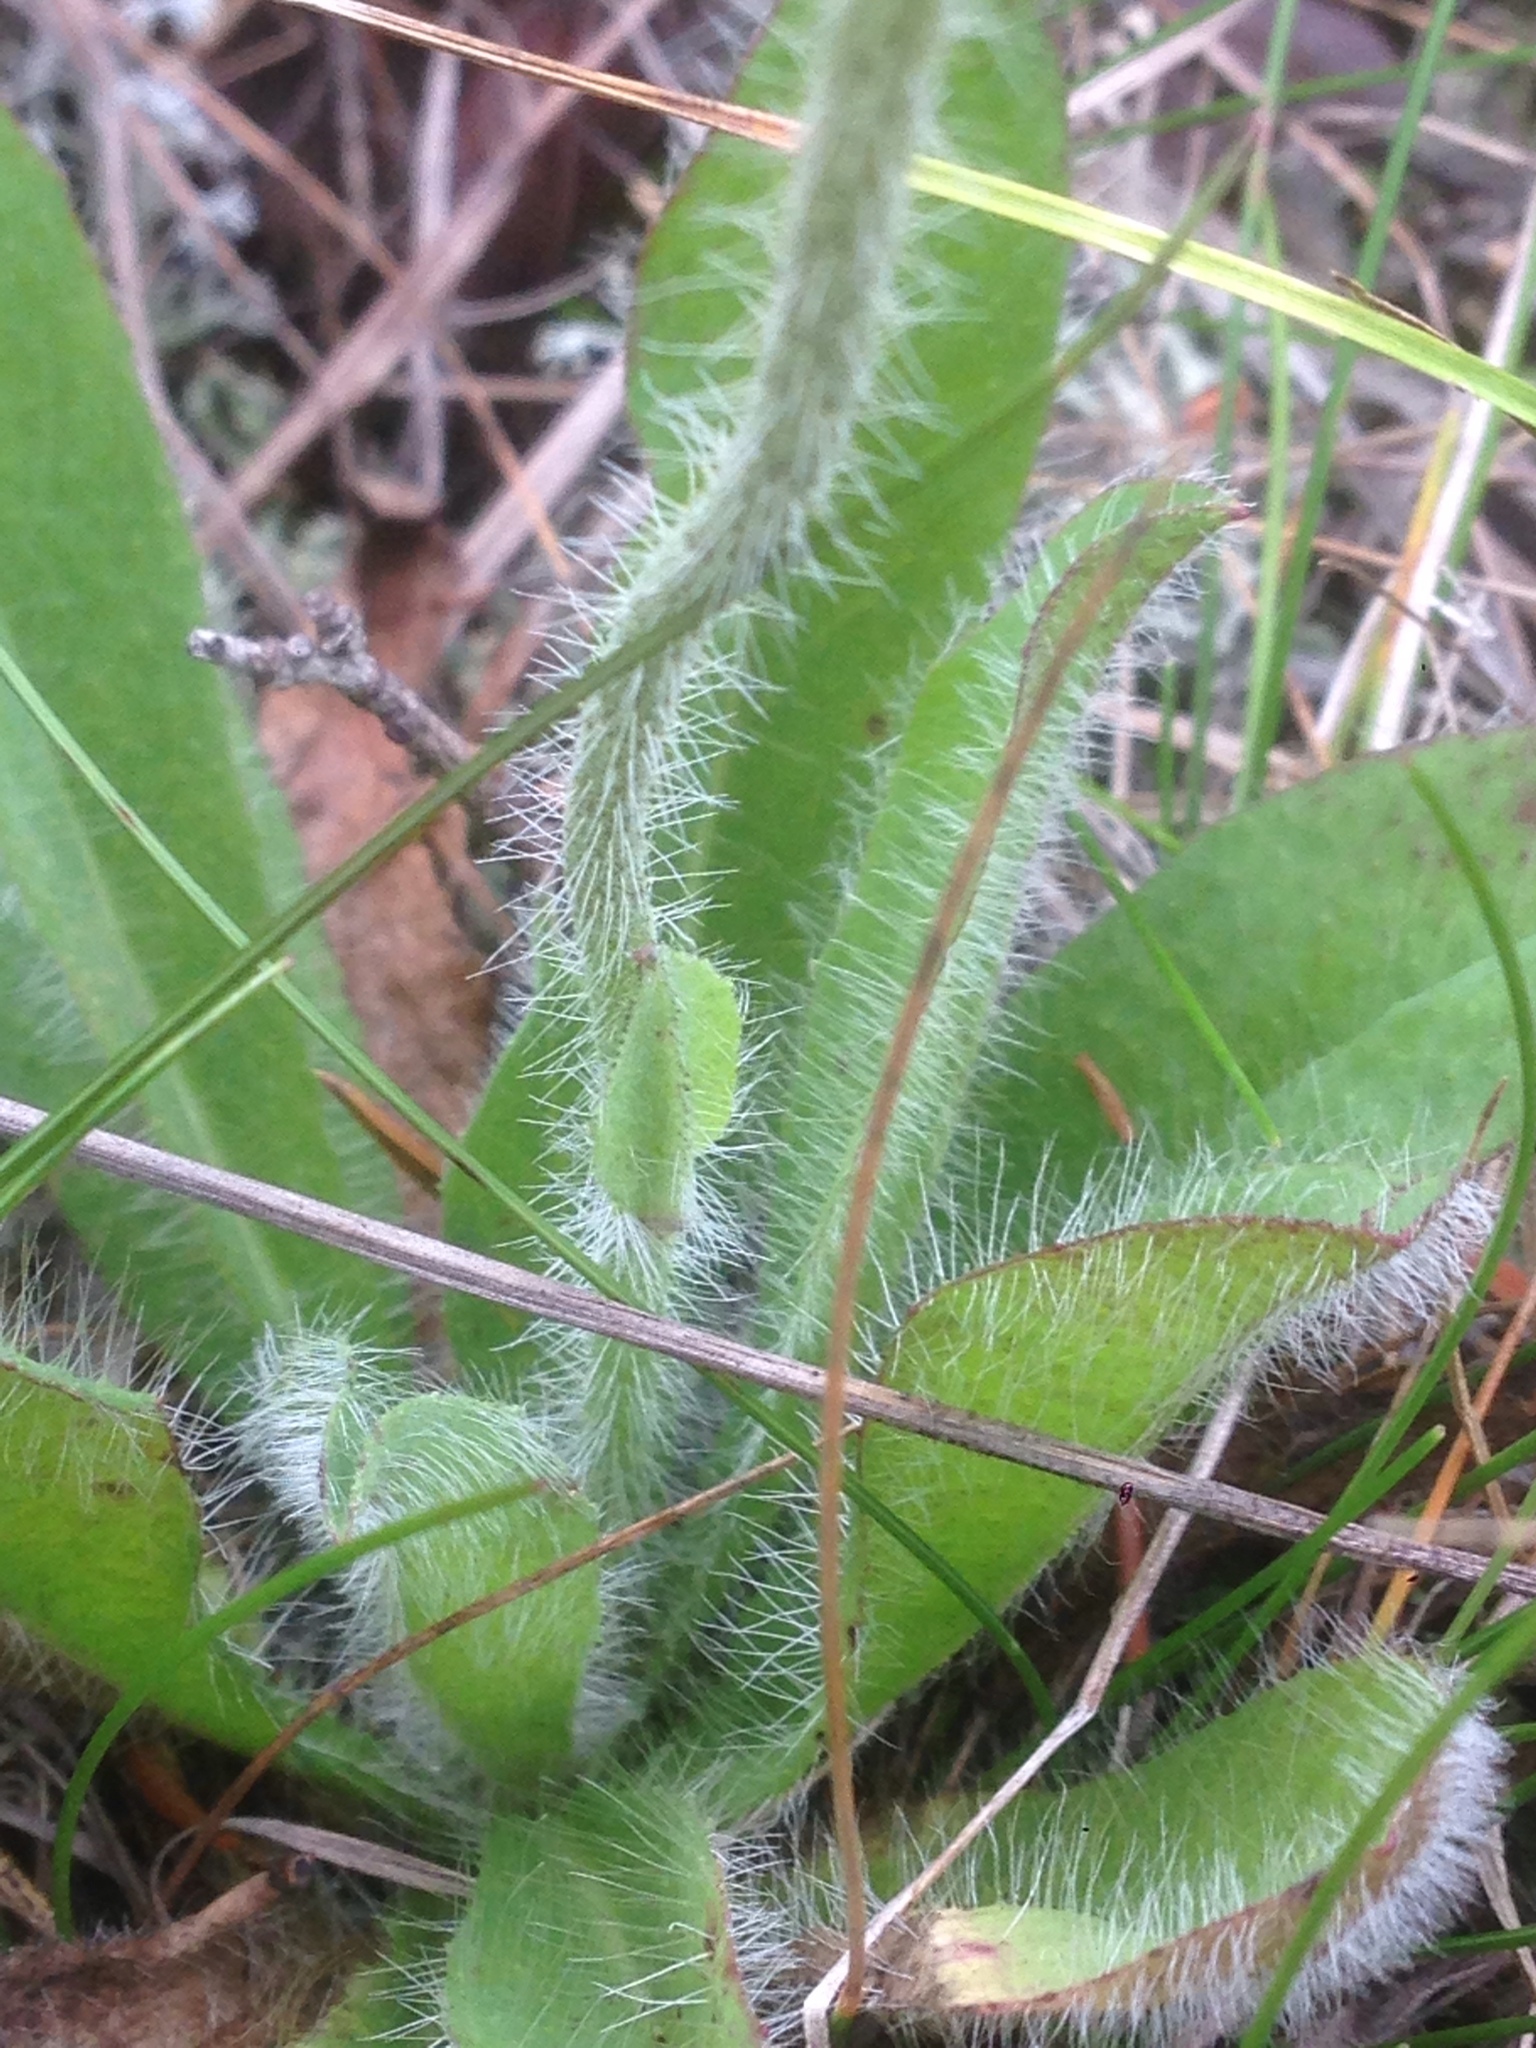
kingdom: Plantae
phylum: Tracheophyta
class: Magnoliopsida
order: Asterales
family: Asteraceae
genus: Pilosella
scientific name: Pilosella aurantiaca
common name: Fox-and-cubs
